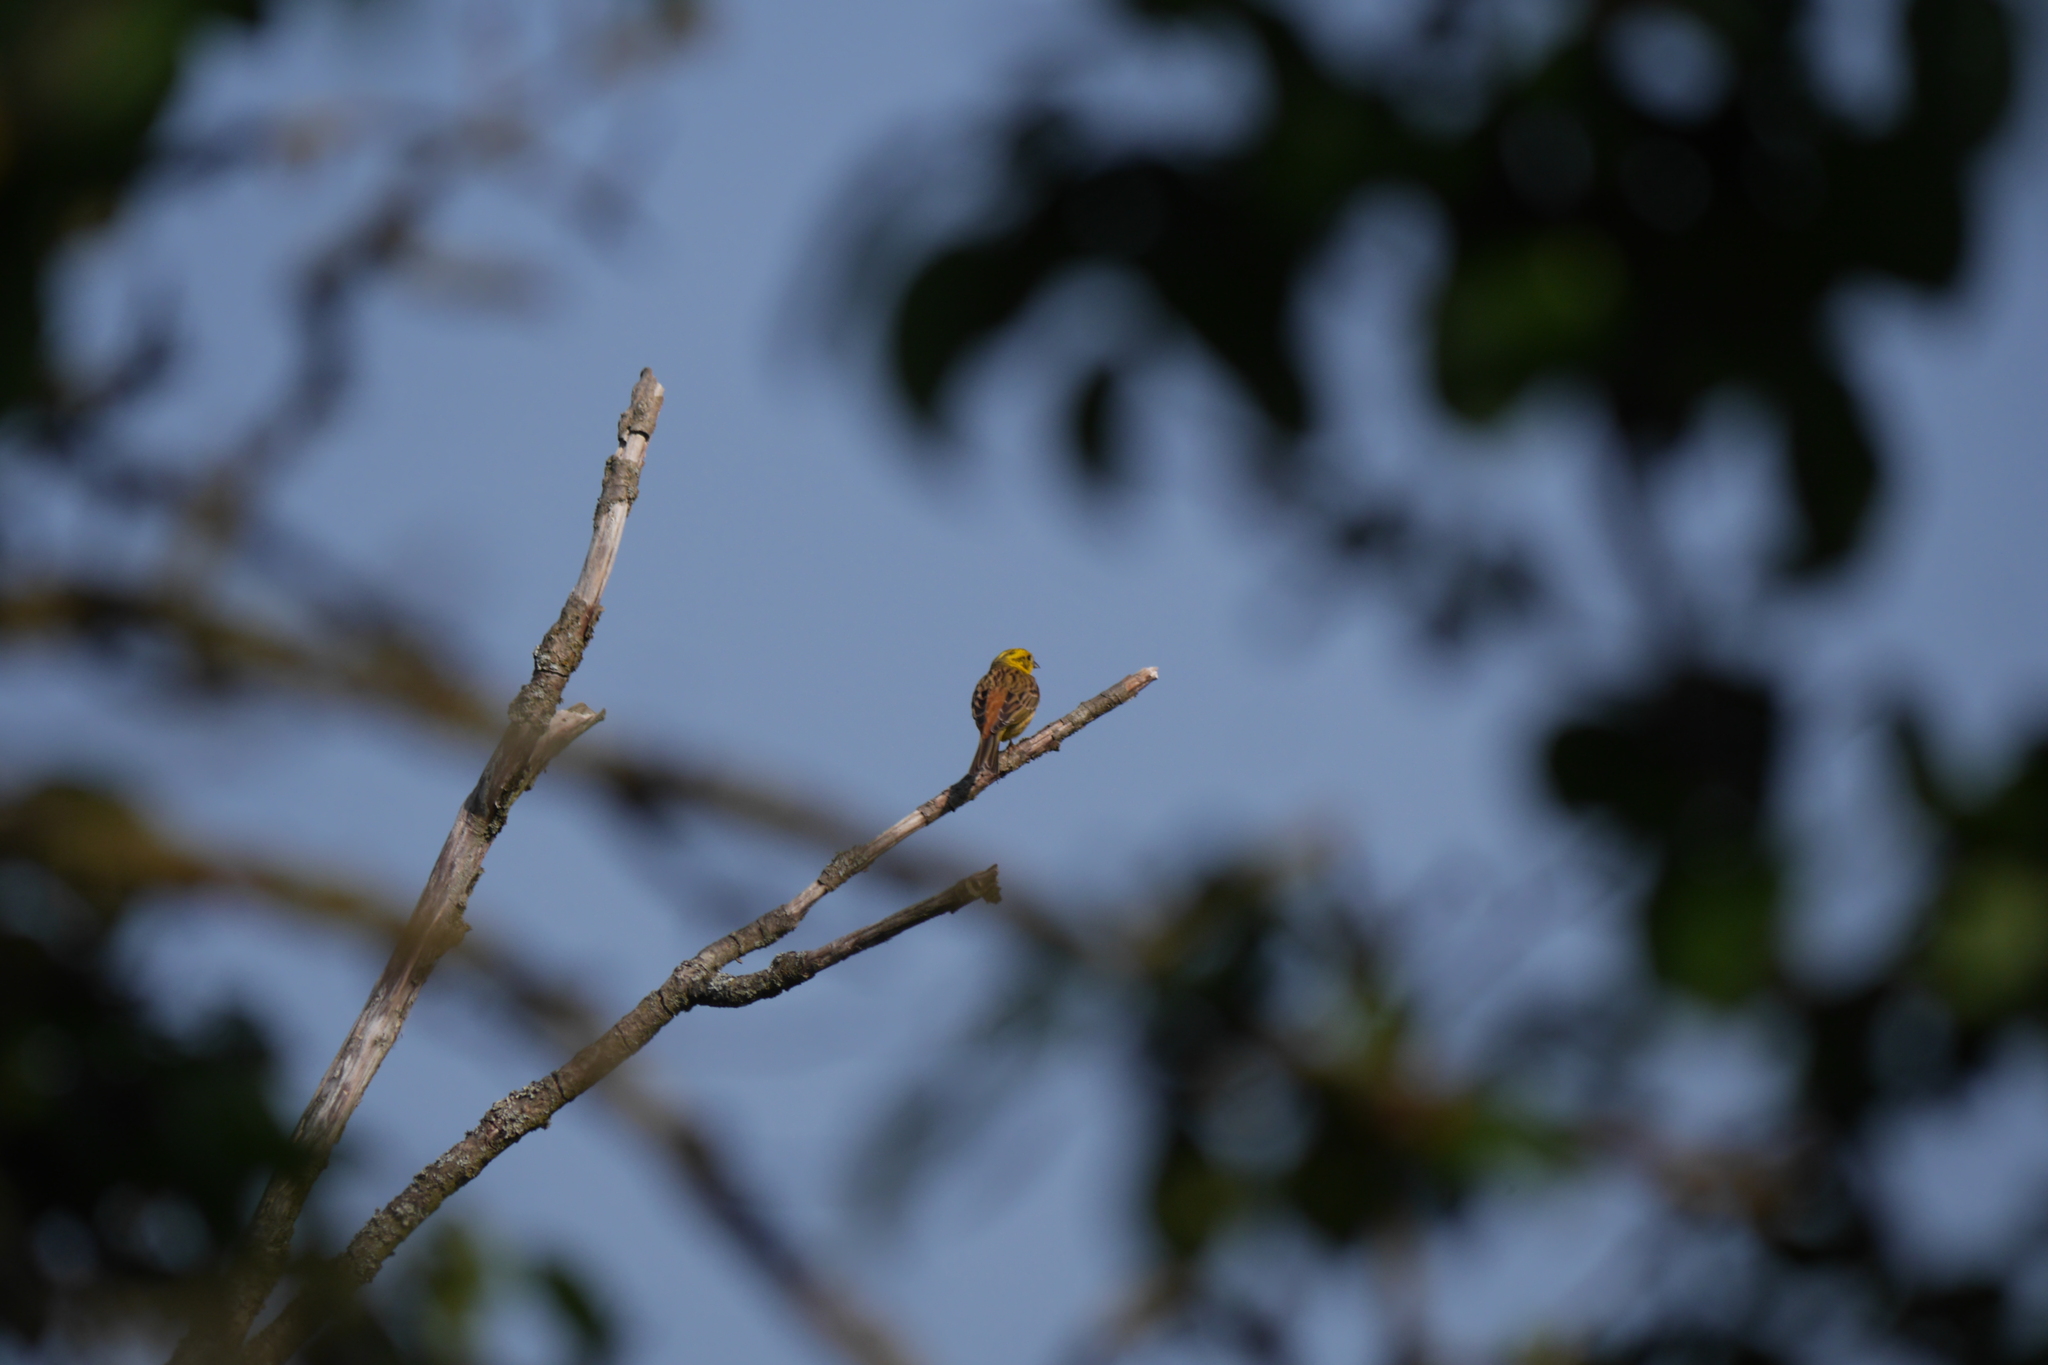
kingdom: Animalia
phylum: Chordata
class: Aves
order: Passeriformes
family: Emberizidae
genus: Emberiza
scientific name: Emberiza citrinella
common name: Yellowhammer
